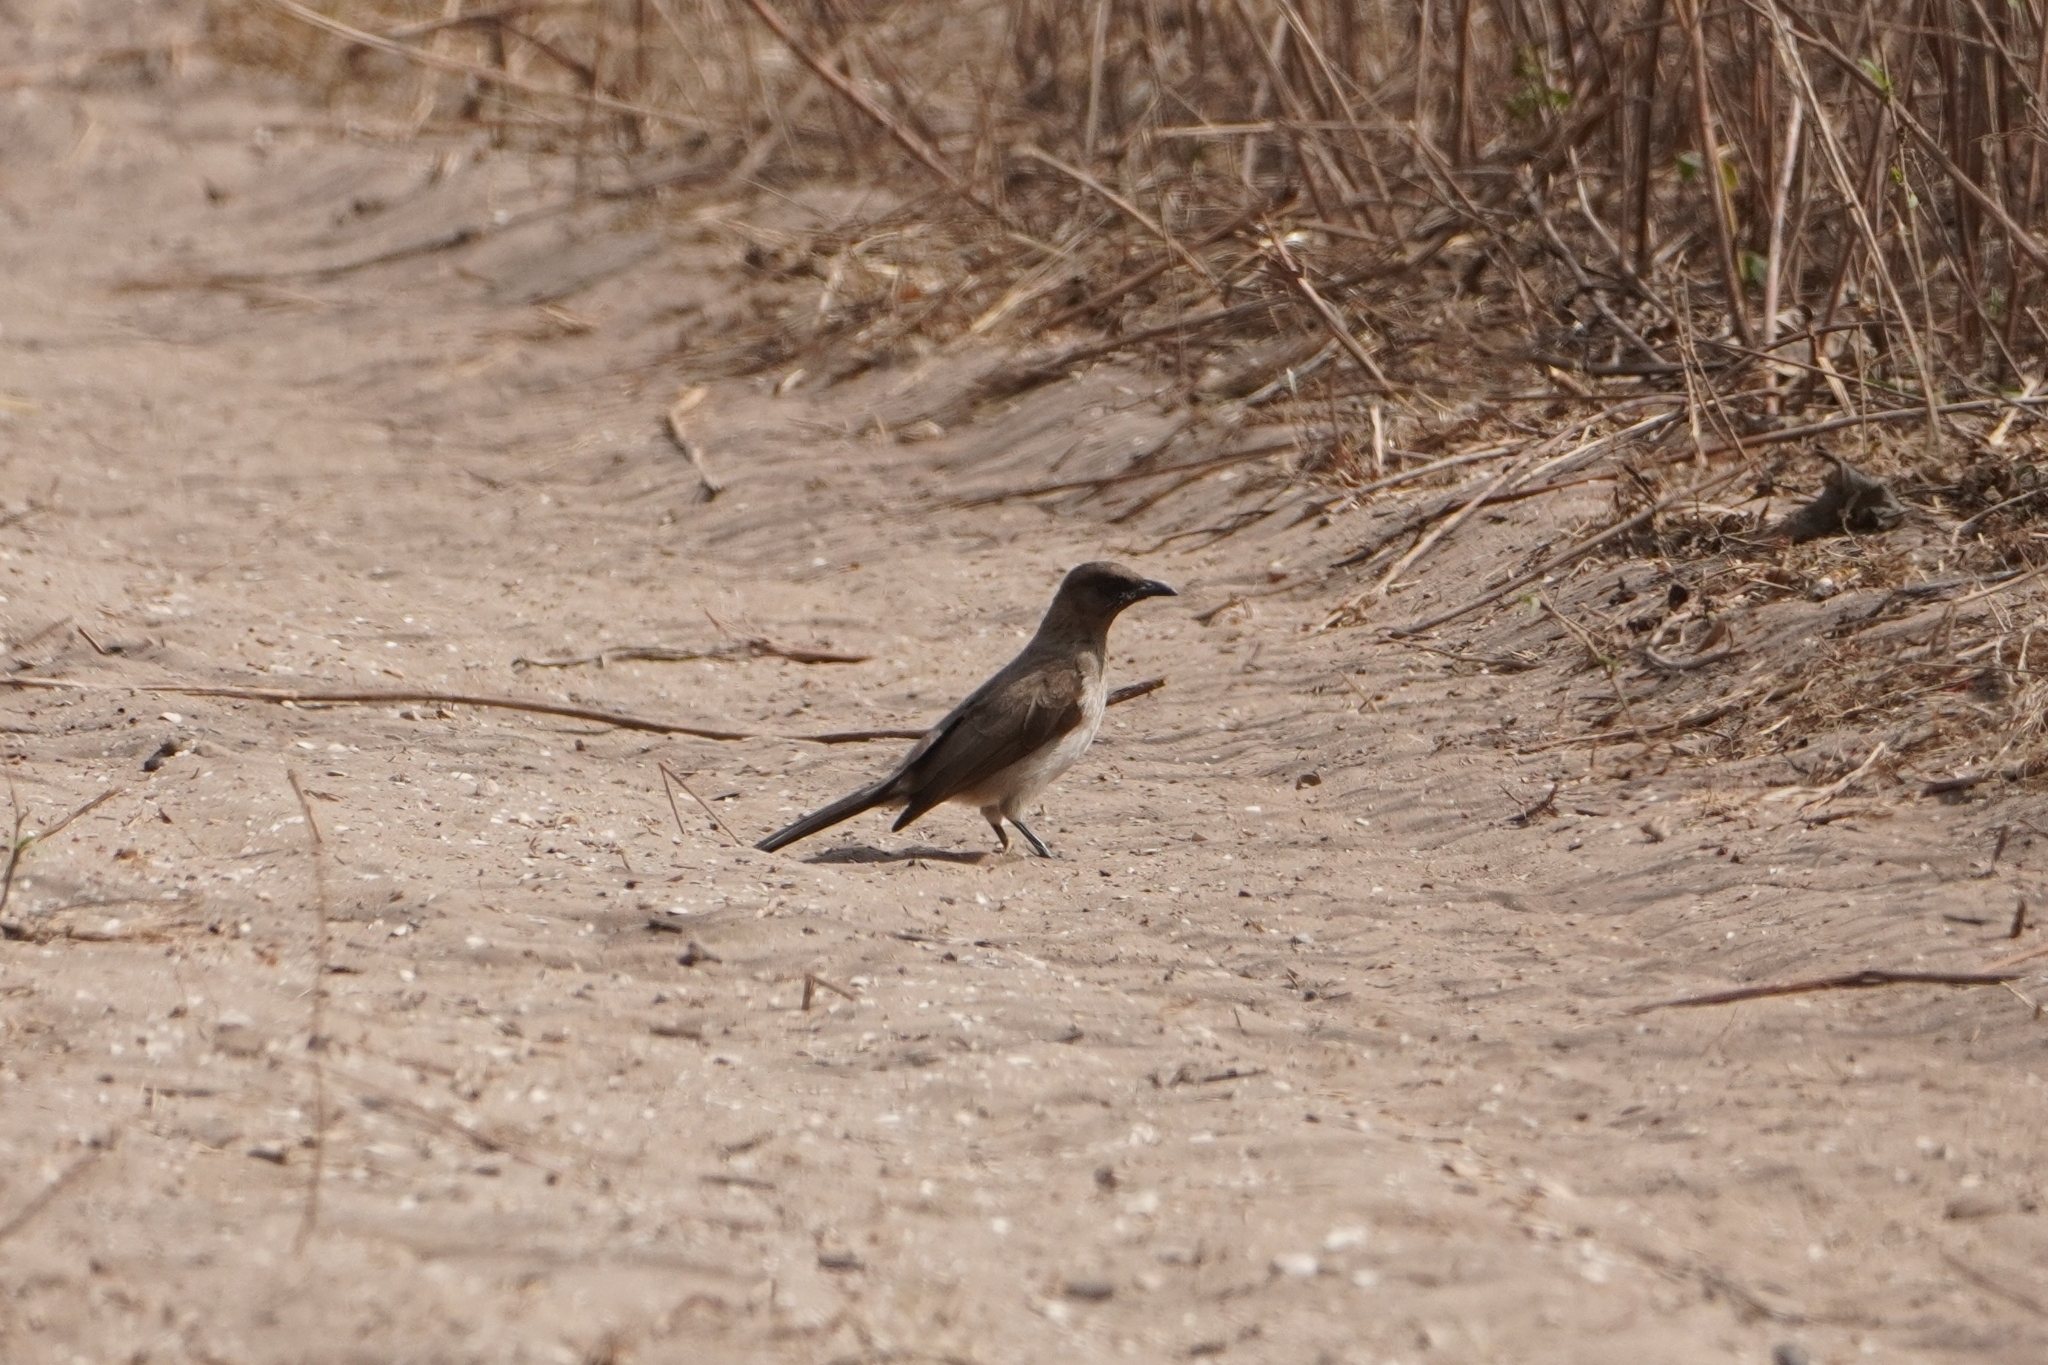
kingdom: Animalia
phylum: Chordata
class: Aves
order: Passeriformes
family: Pycnonotidae
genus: Pycnonotus
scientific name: Pycnonotus barbatus
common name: Common bulbul
